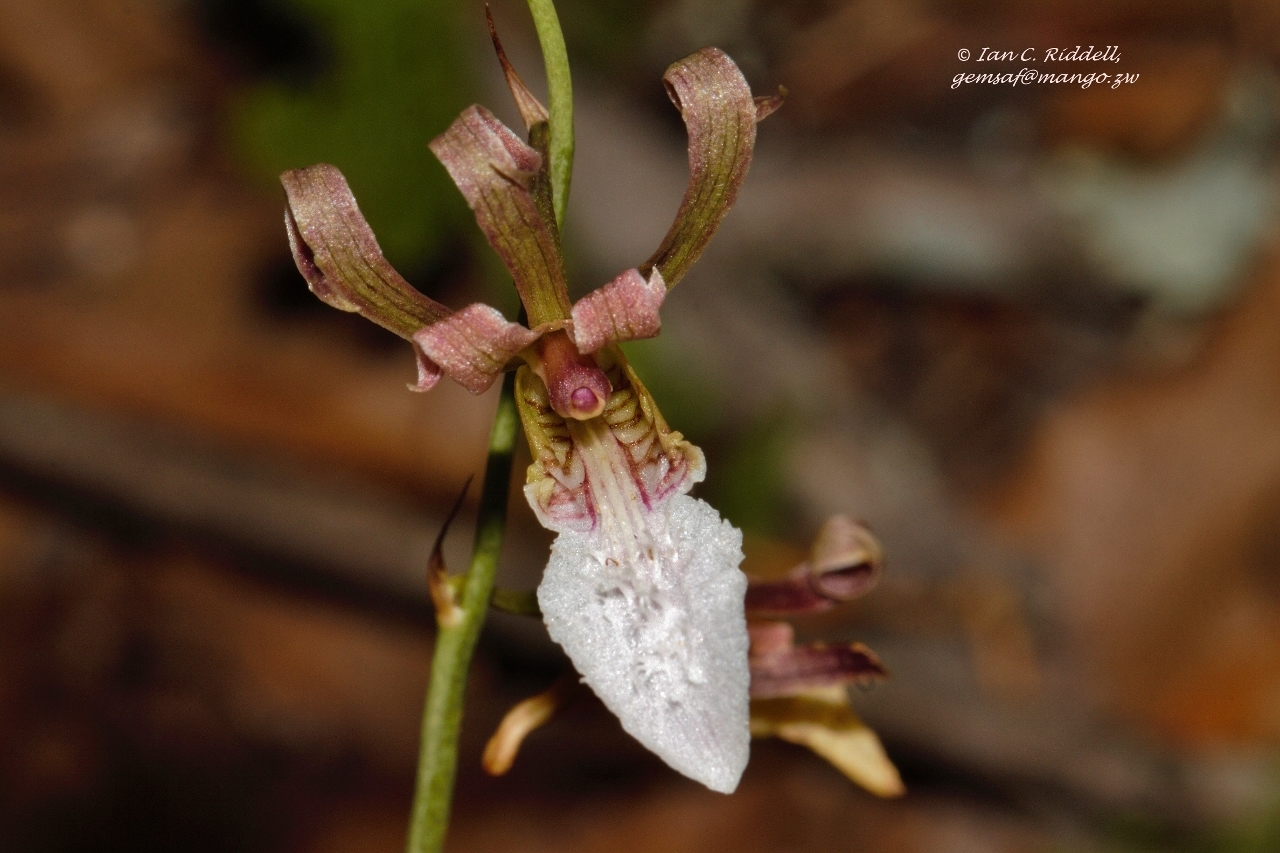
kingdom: Plantae
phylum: Tracheophyta
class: Liliopsida
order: Asparagales
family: Orchidaceae
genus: Eulophia
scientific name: Eulophia venulosa
